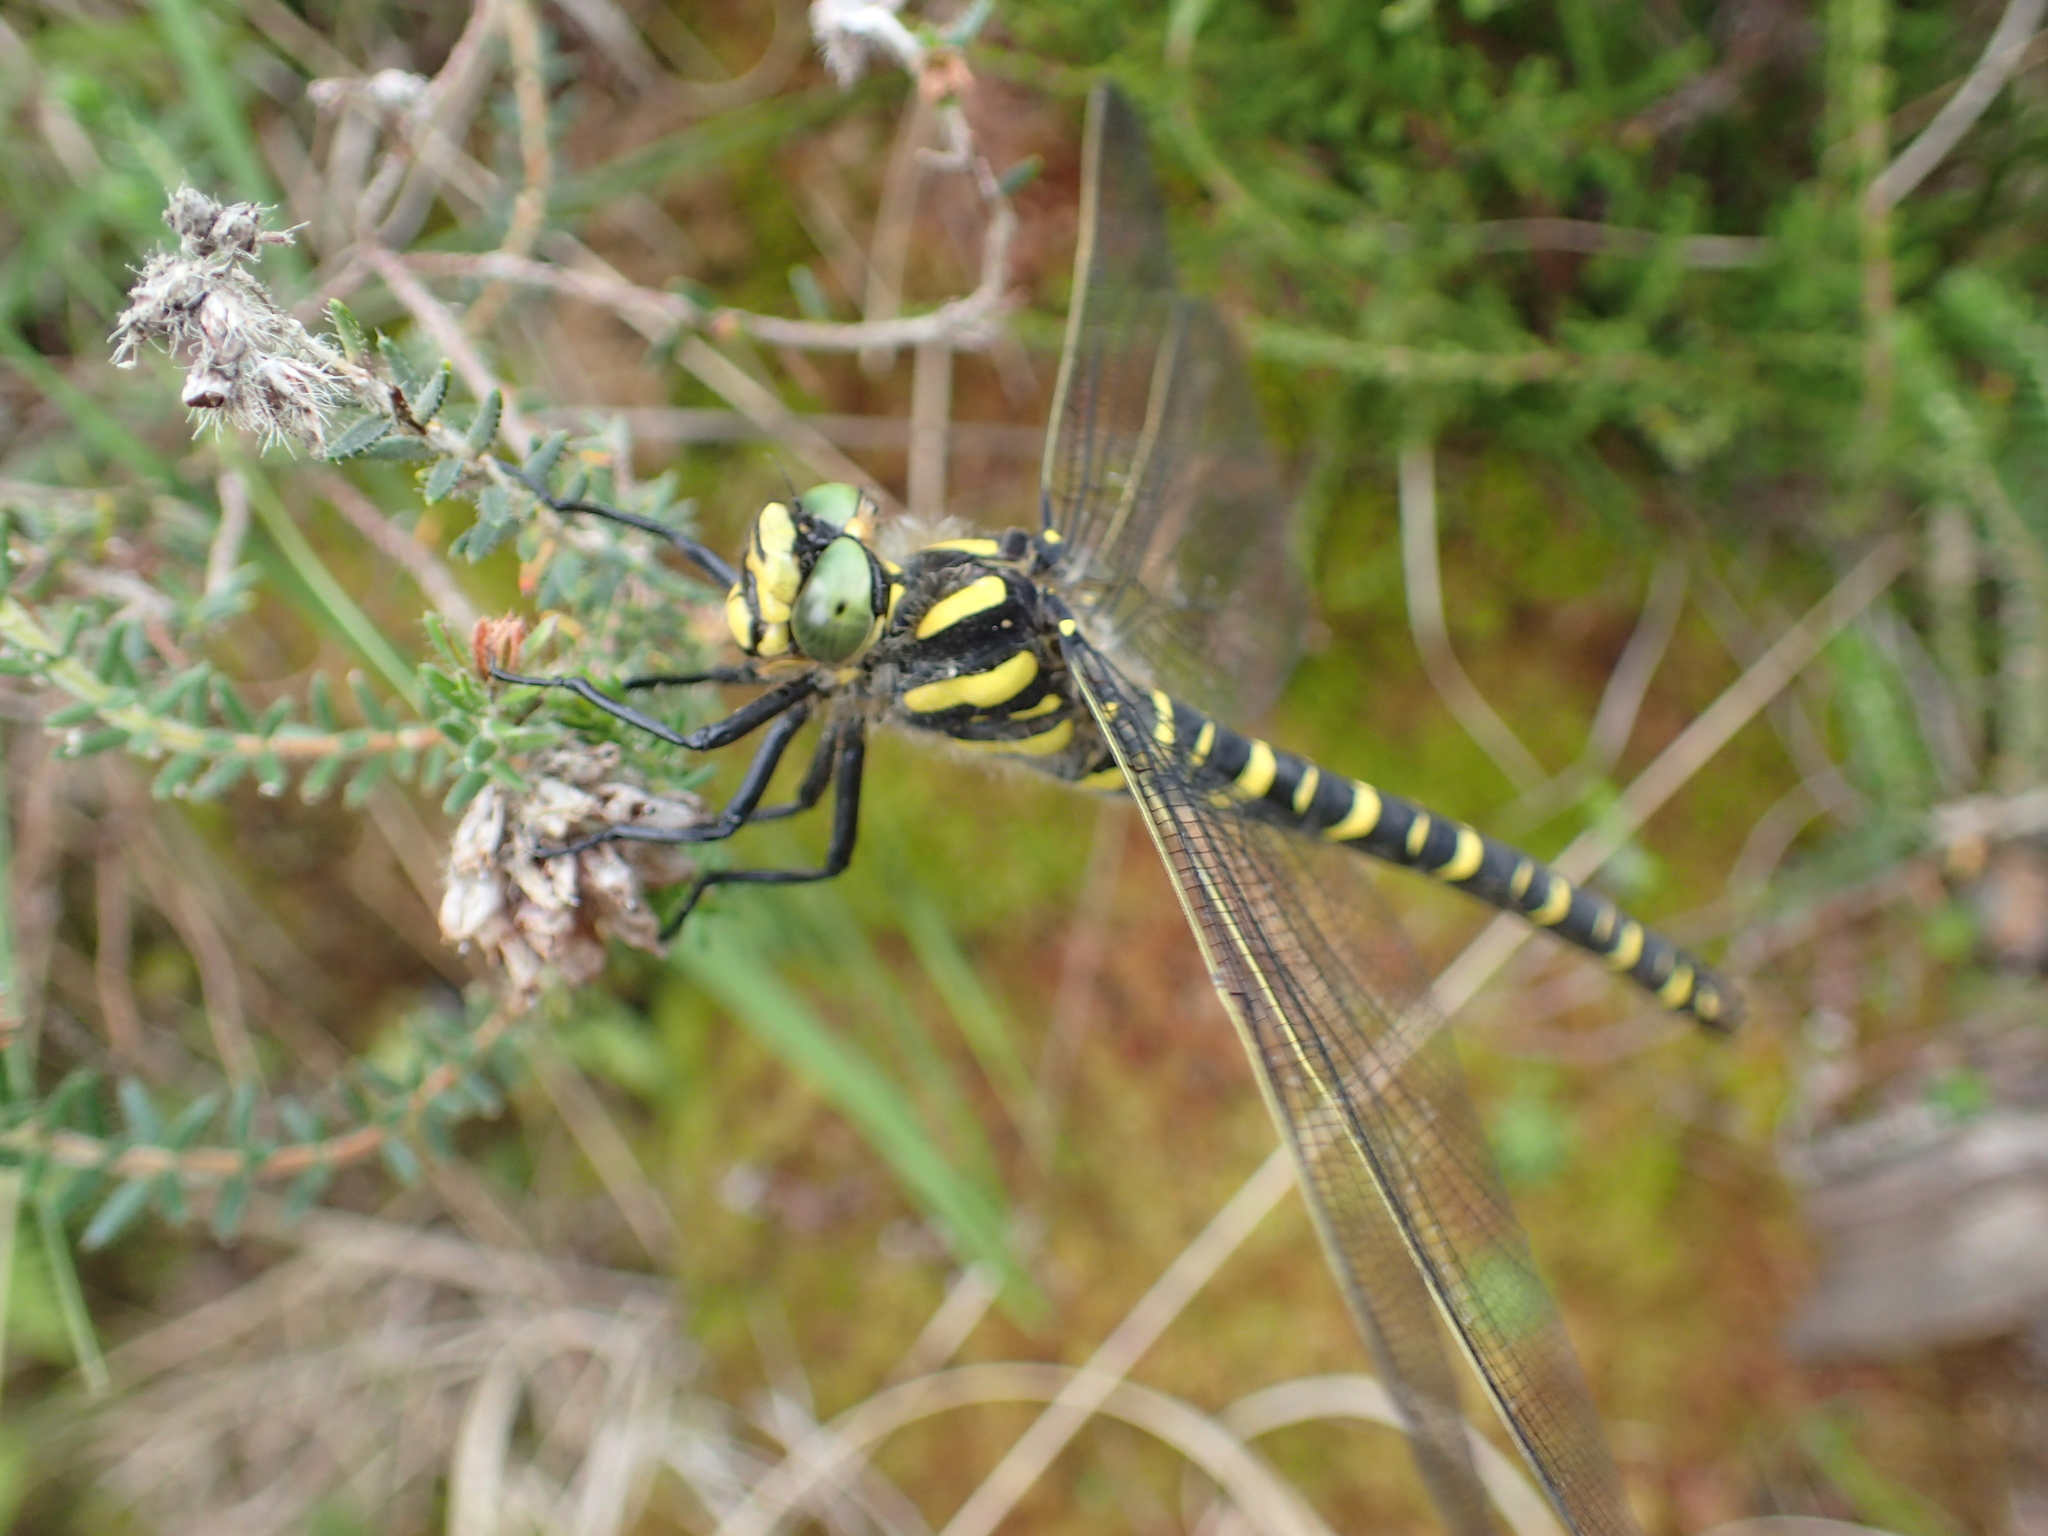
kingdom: Animalia
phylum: Arthropoda
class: Insecta
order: Odonata
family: Cordulegastridae
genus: Cordulegaster
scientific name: Cordulegaster boltonii
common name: Golden-ringed dragonfly
